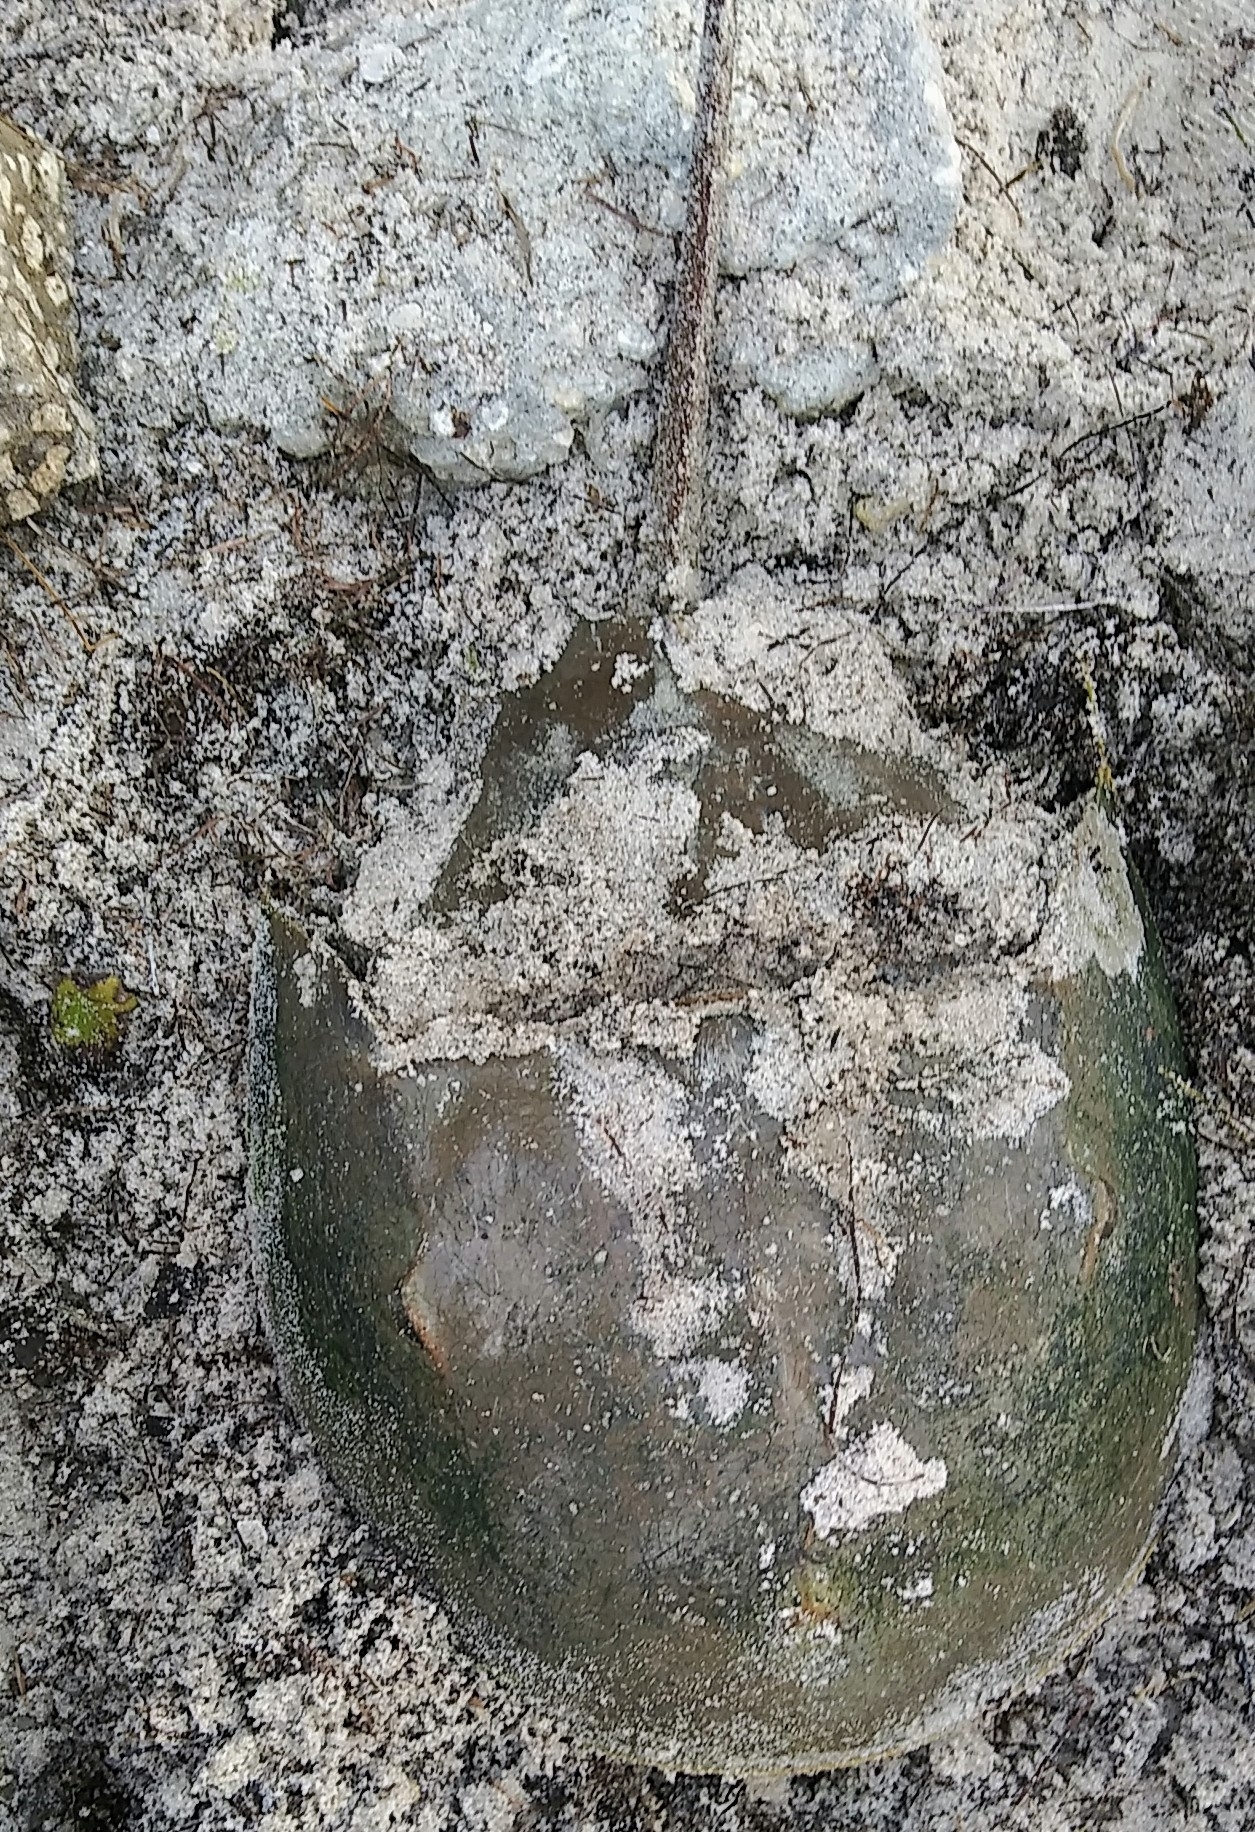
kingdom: Animalia
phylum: Arthropoda
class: Merostomata
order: Xiphosurida
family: Limulidae
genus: Limulus
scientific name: Limulus polyphemus
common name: Horseshoe crab
